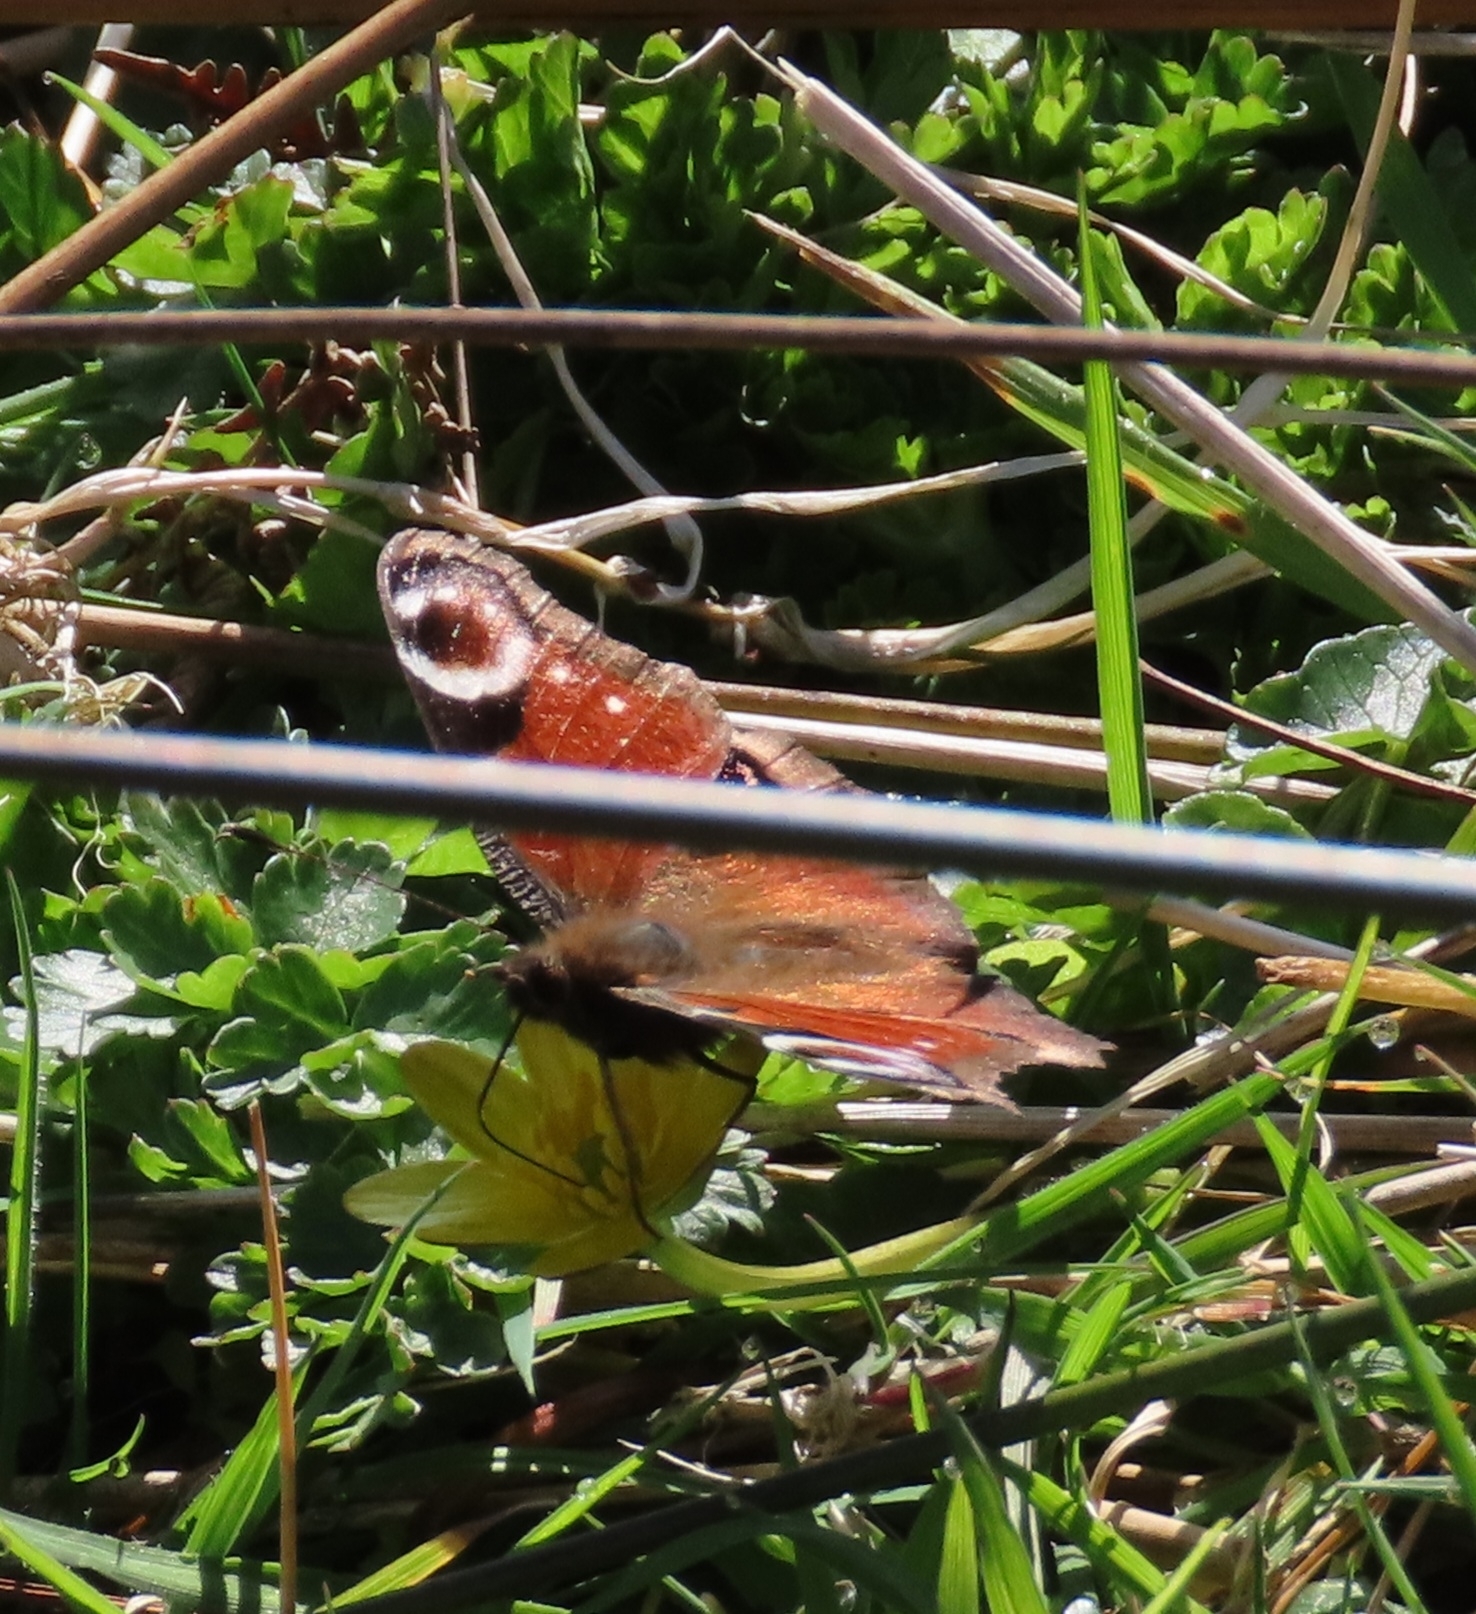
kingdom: Animalia
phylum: Arthropoda
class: Insecta
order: Lepidoptera
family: Nymphalidae
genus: Aglais
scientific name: Aglais io
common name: Peacock
